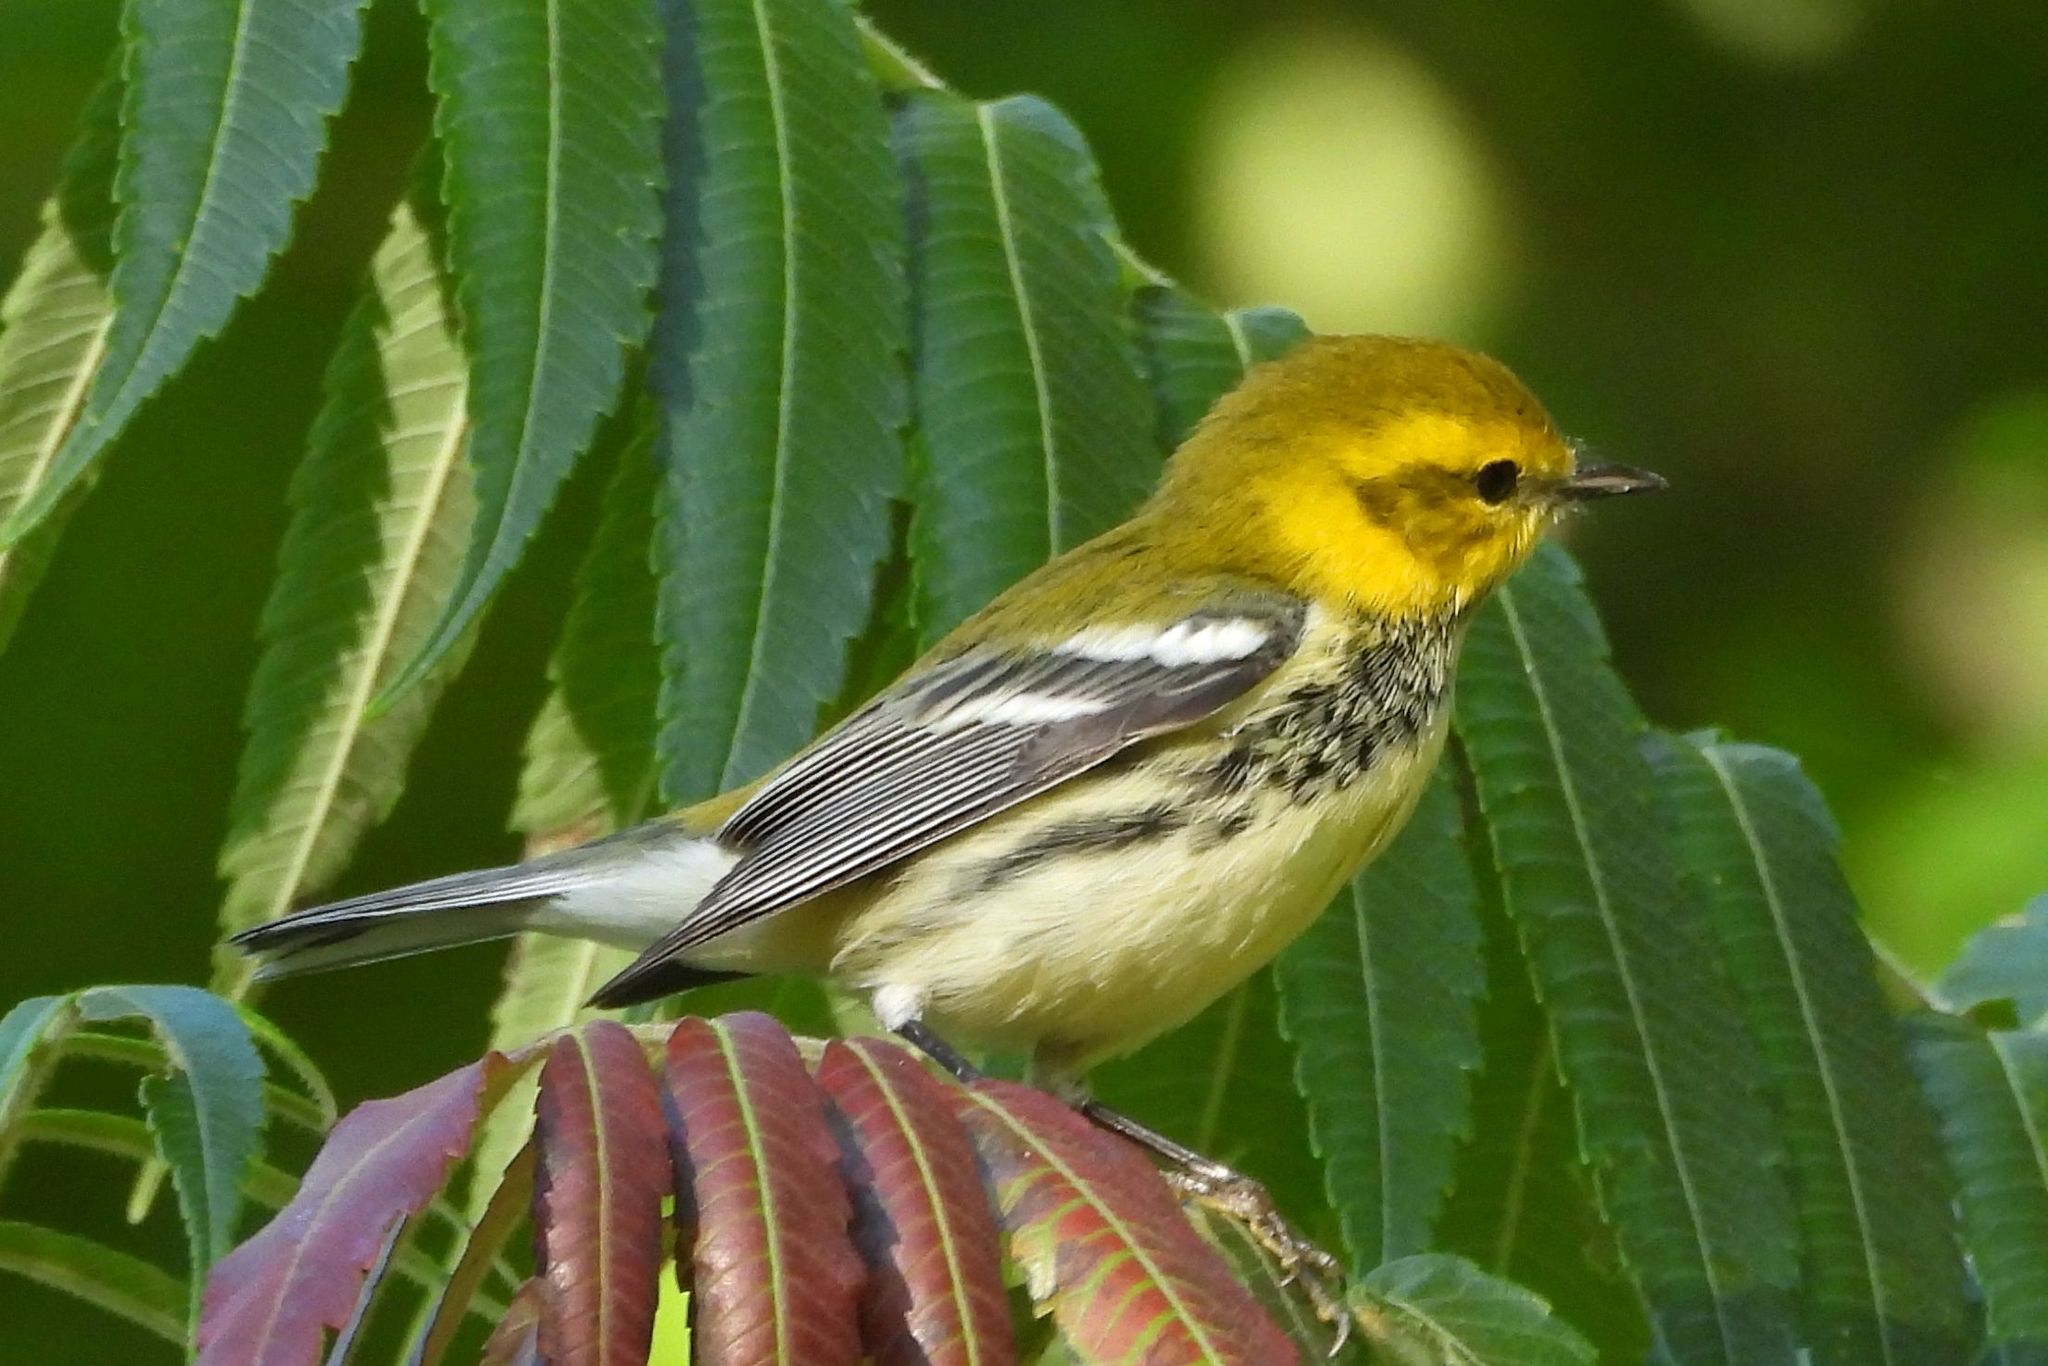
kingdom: Animalia
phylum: Chordata
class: Aves
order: Passeriformes
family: Parulidae
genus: Setophaga
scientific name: Setophaga virens
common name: Black-throated green warbler
